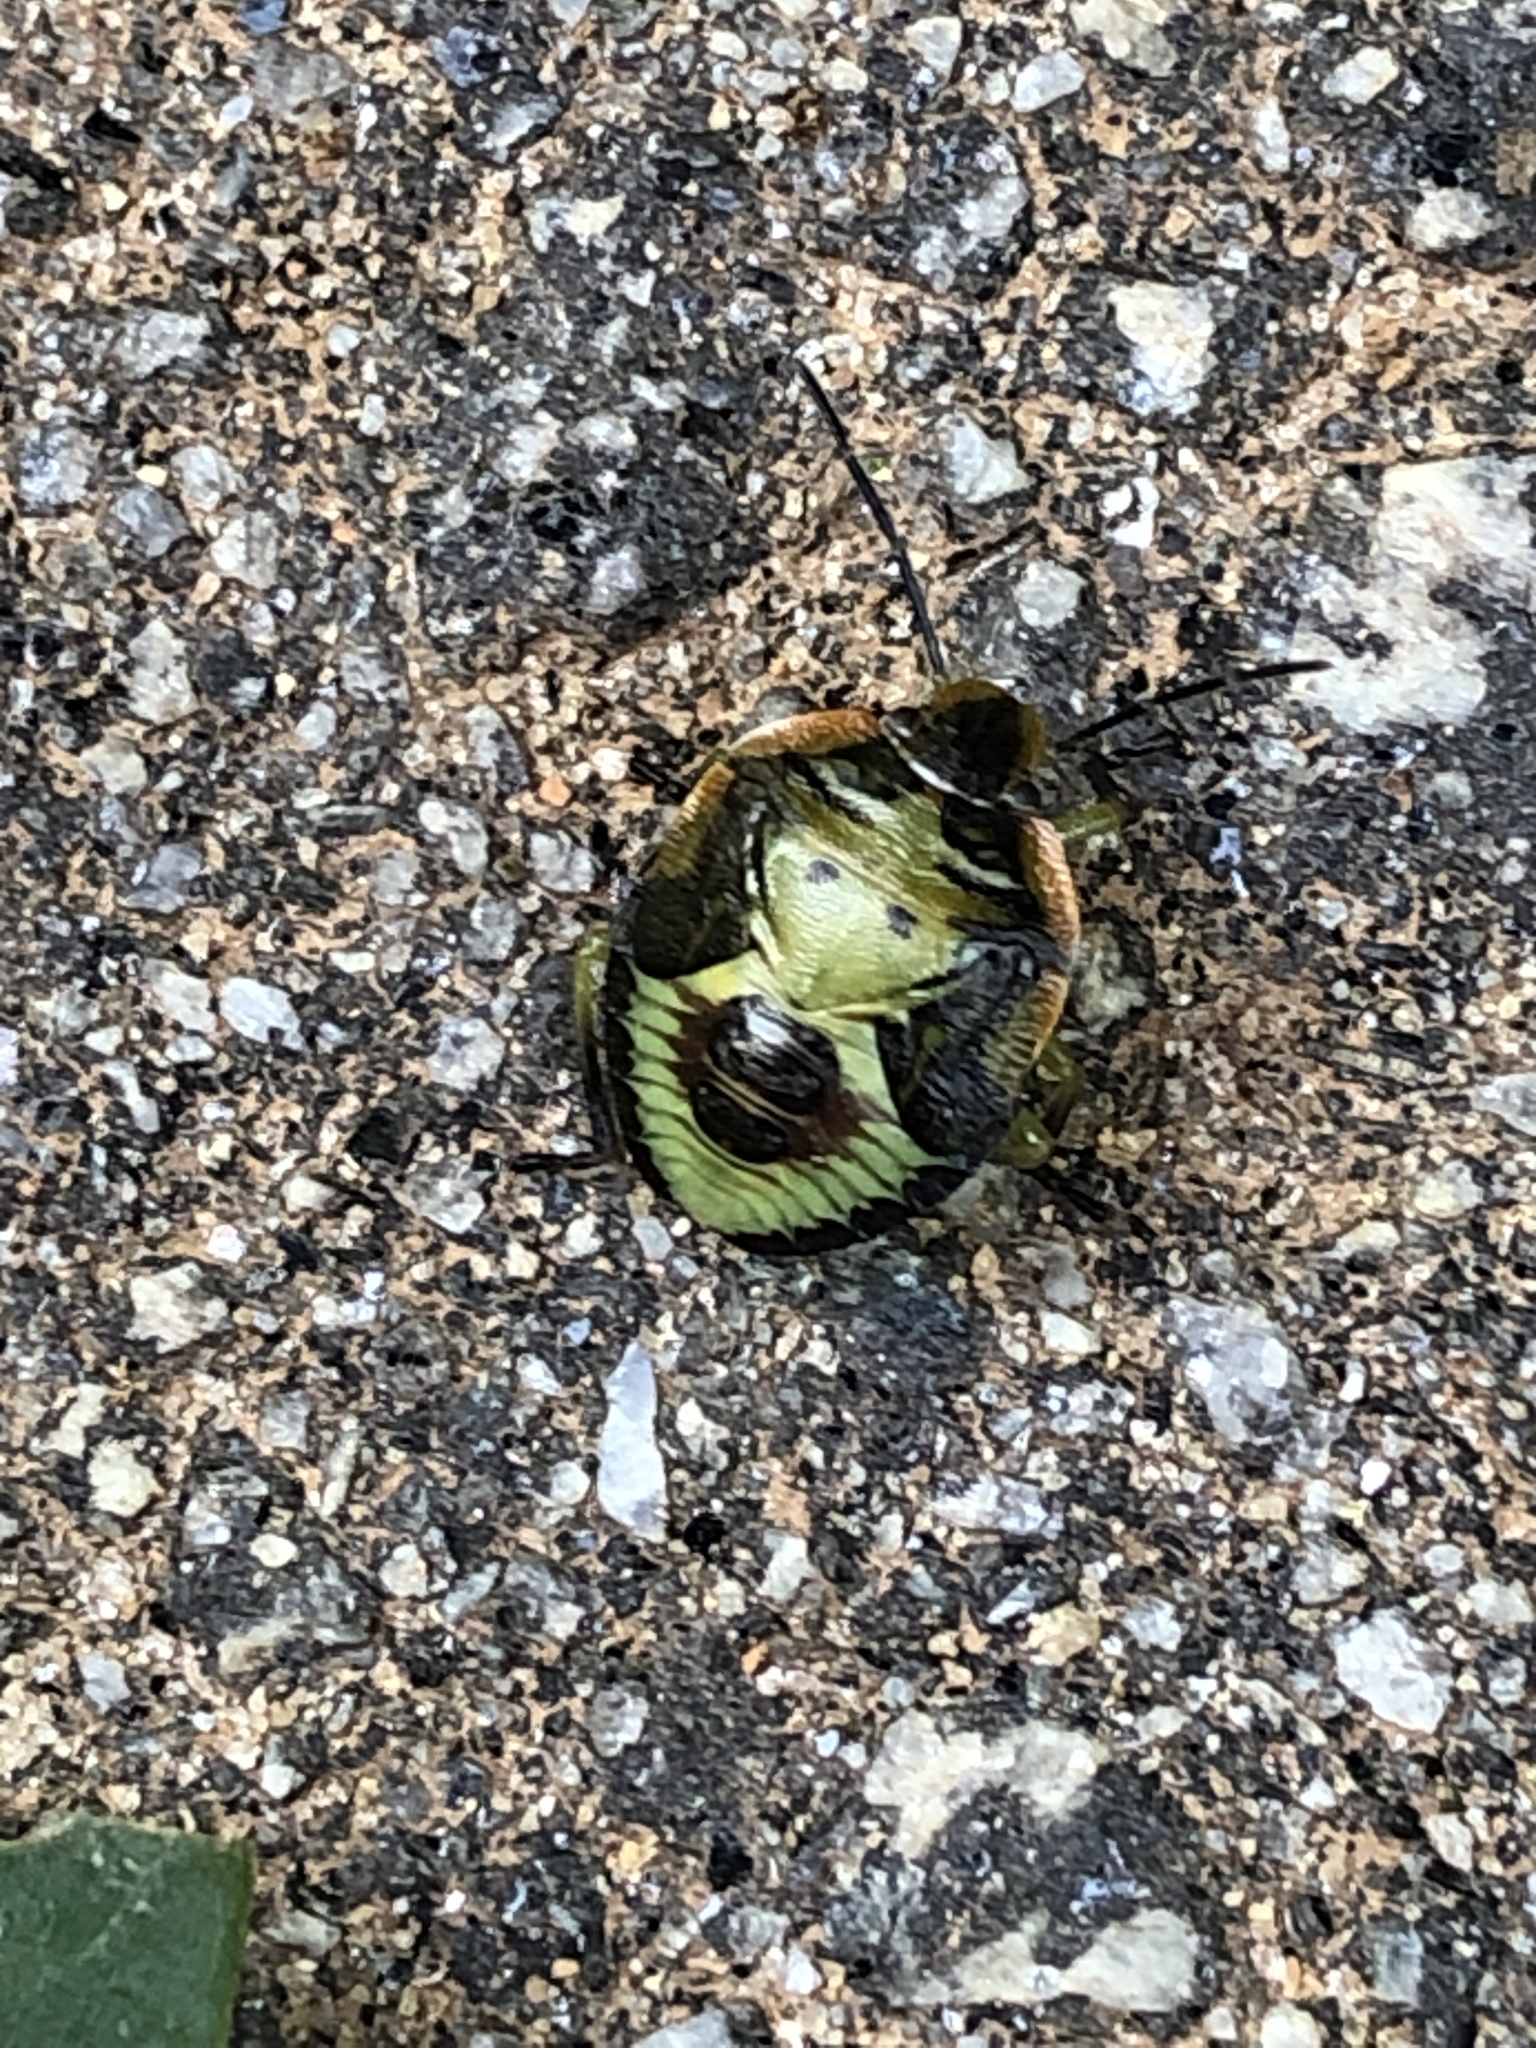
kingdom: Animalia
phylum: Arthropoda
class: Insecta
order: Hemiptera
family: Pentatomidae
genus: Chinavia
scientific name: Chinavia hilaris
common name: Green stink bug
